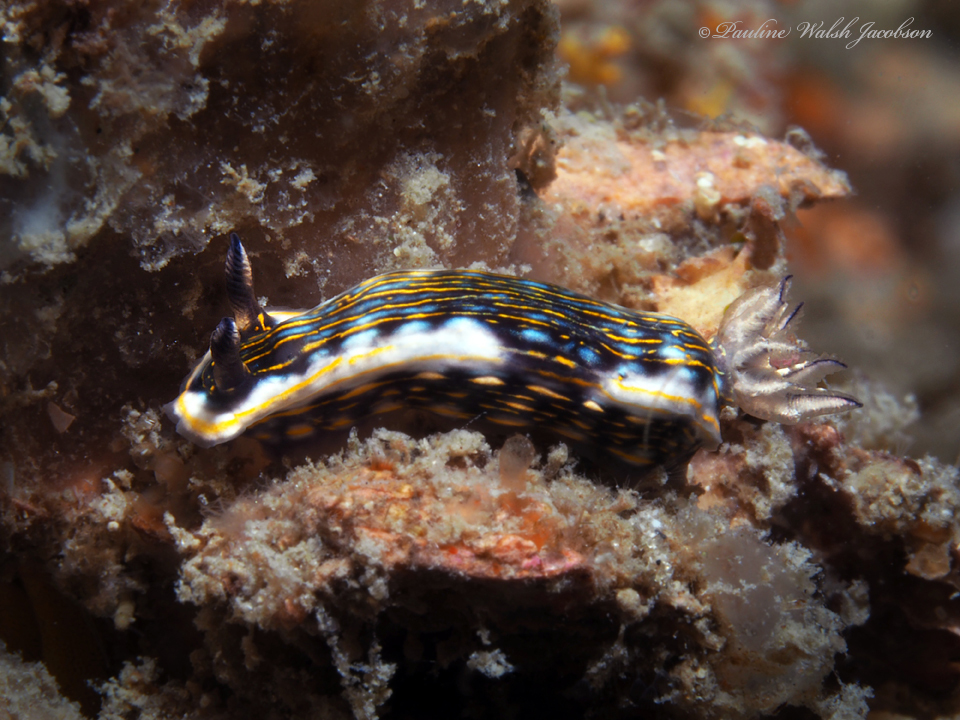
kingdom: Animalia
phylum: Mollusca
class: Gastropoda
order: Nudibranchia
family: Chromodorididae
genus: Felimare
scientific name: Felimare ruthae
